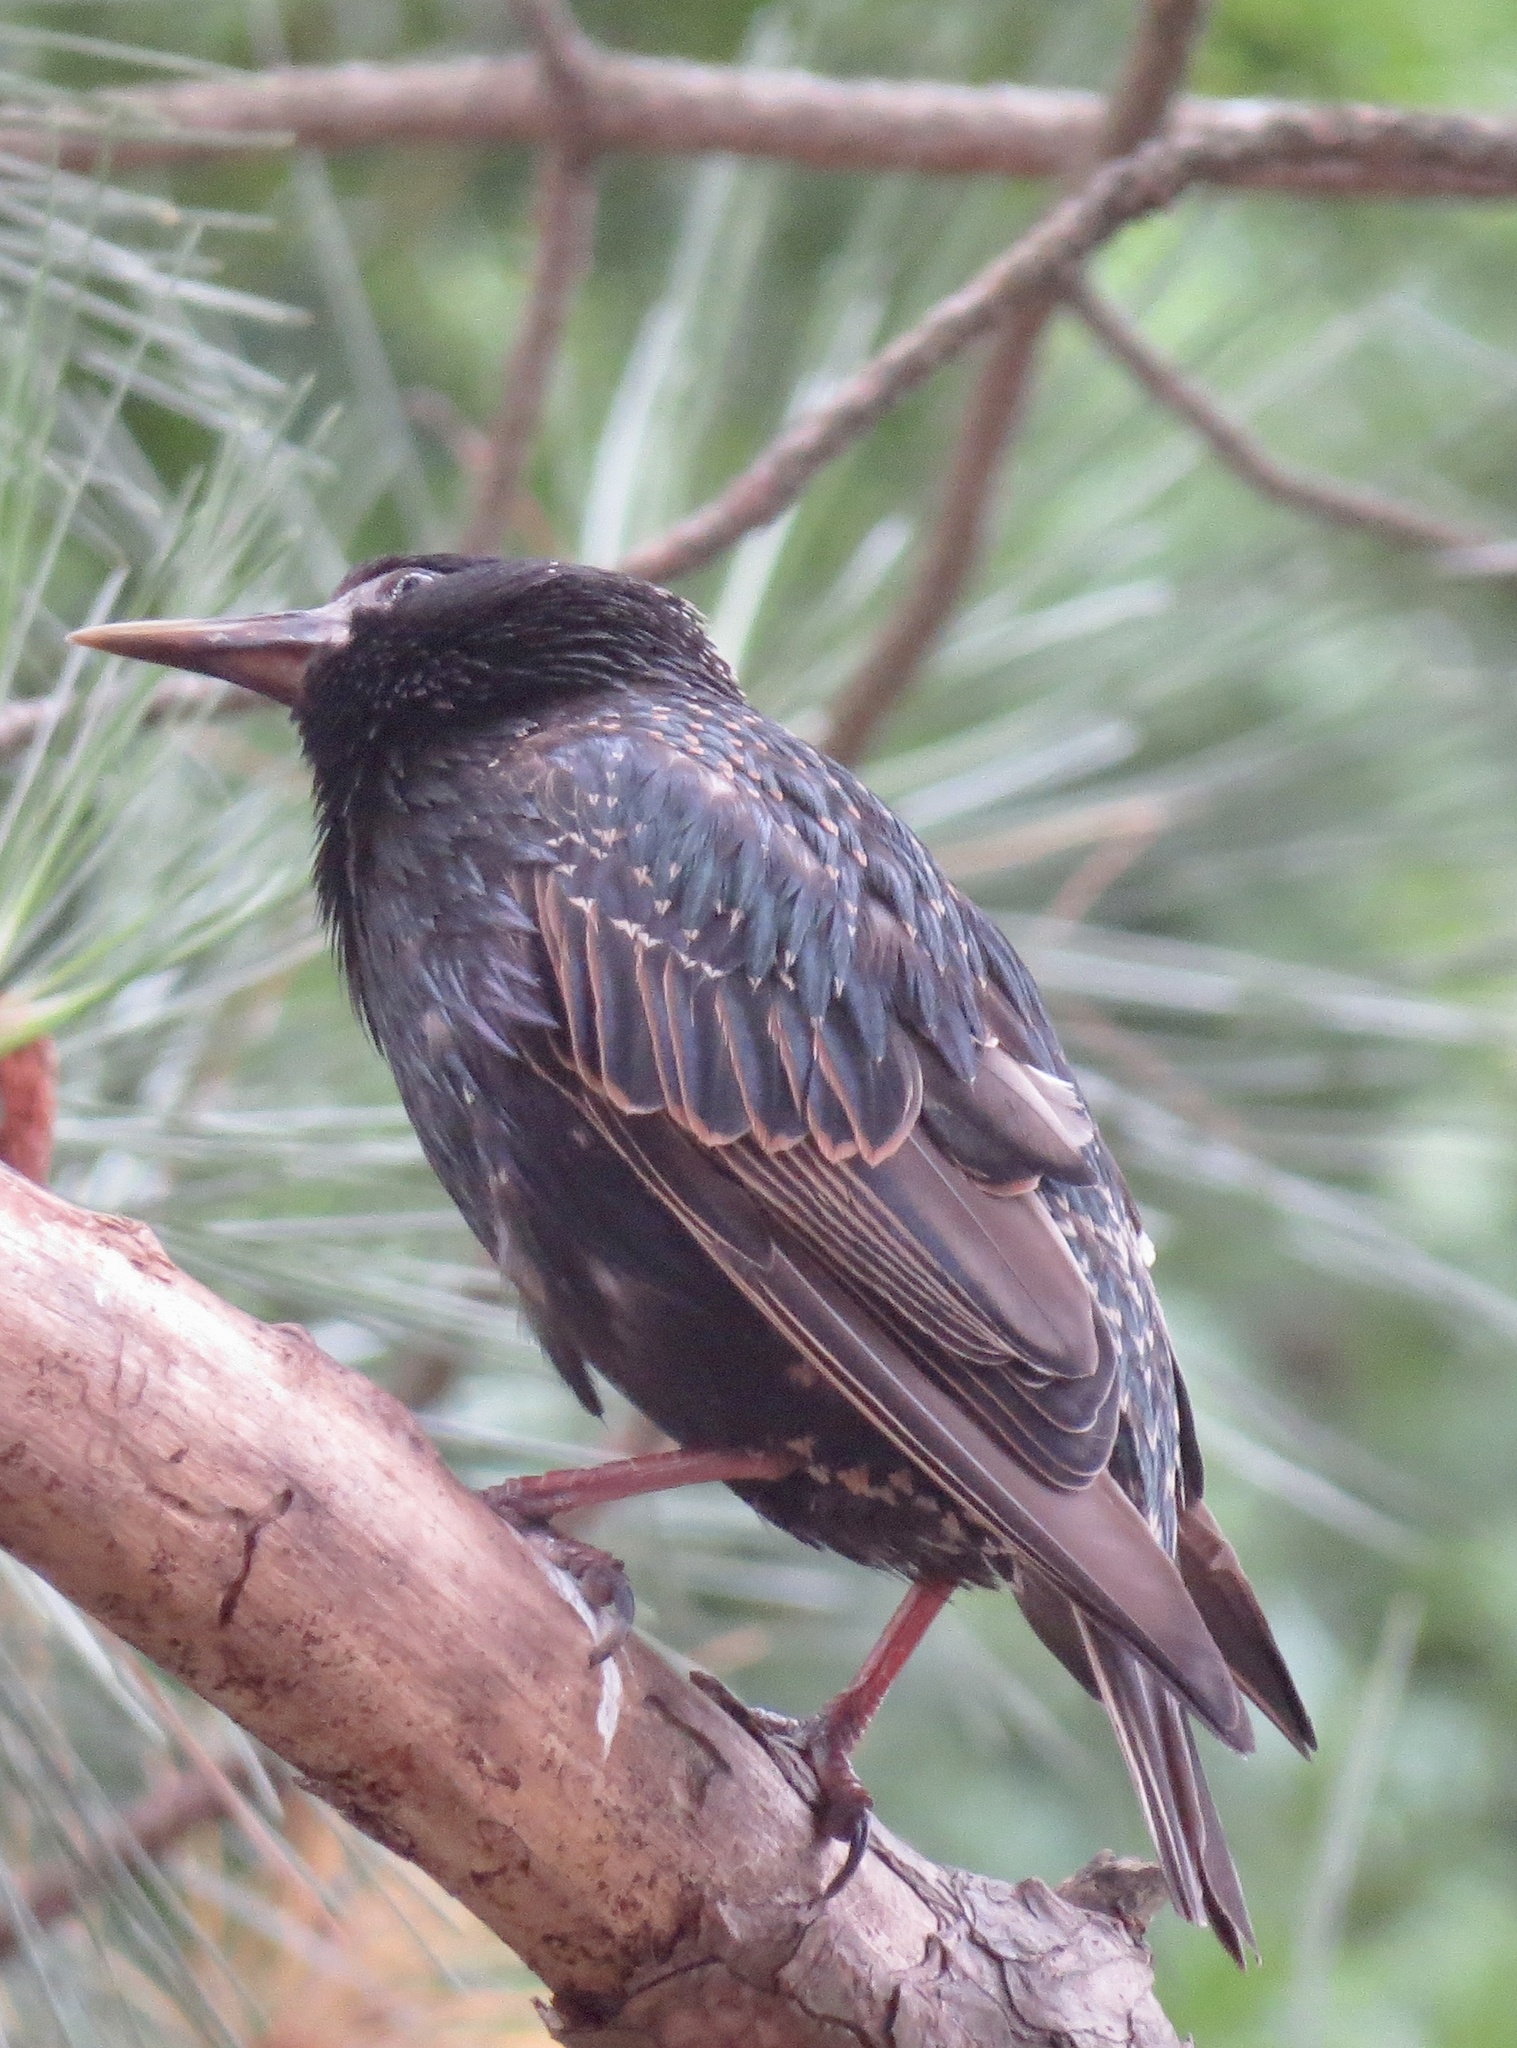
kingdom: Animalia
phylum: Chordata
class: Aves
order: Passeriformes
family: Sturnidae
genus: Sturnus
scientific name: Sturnus vulgaris
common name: Common starling
